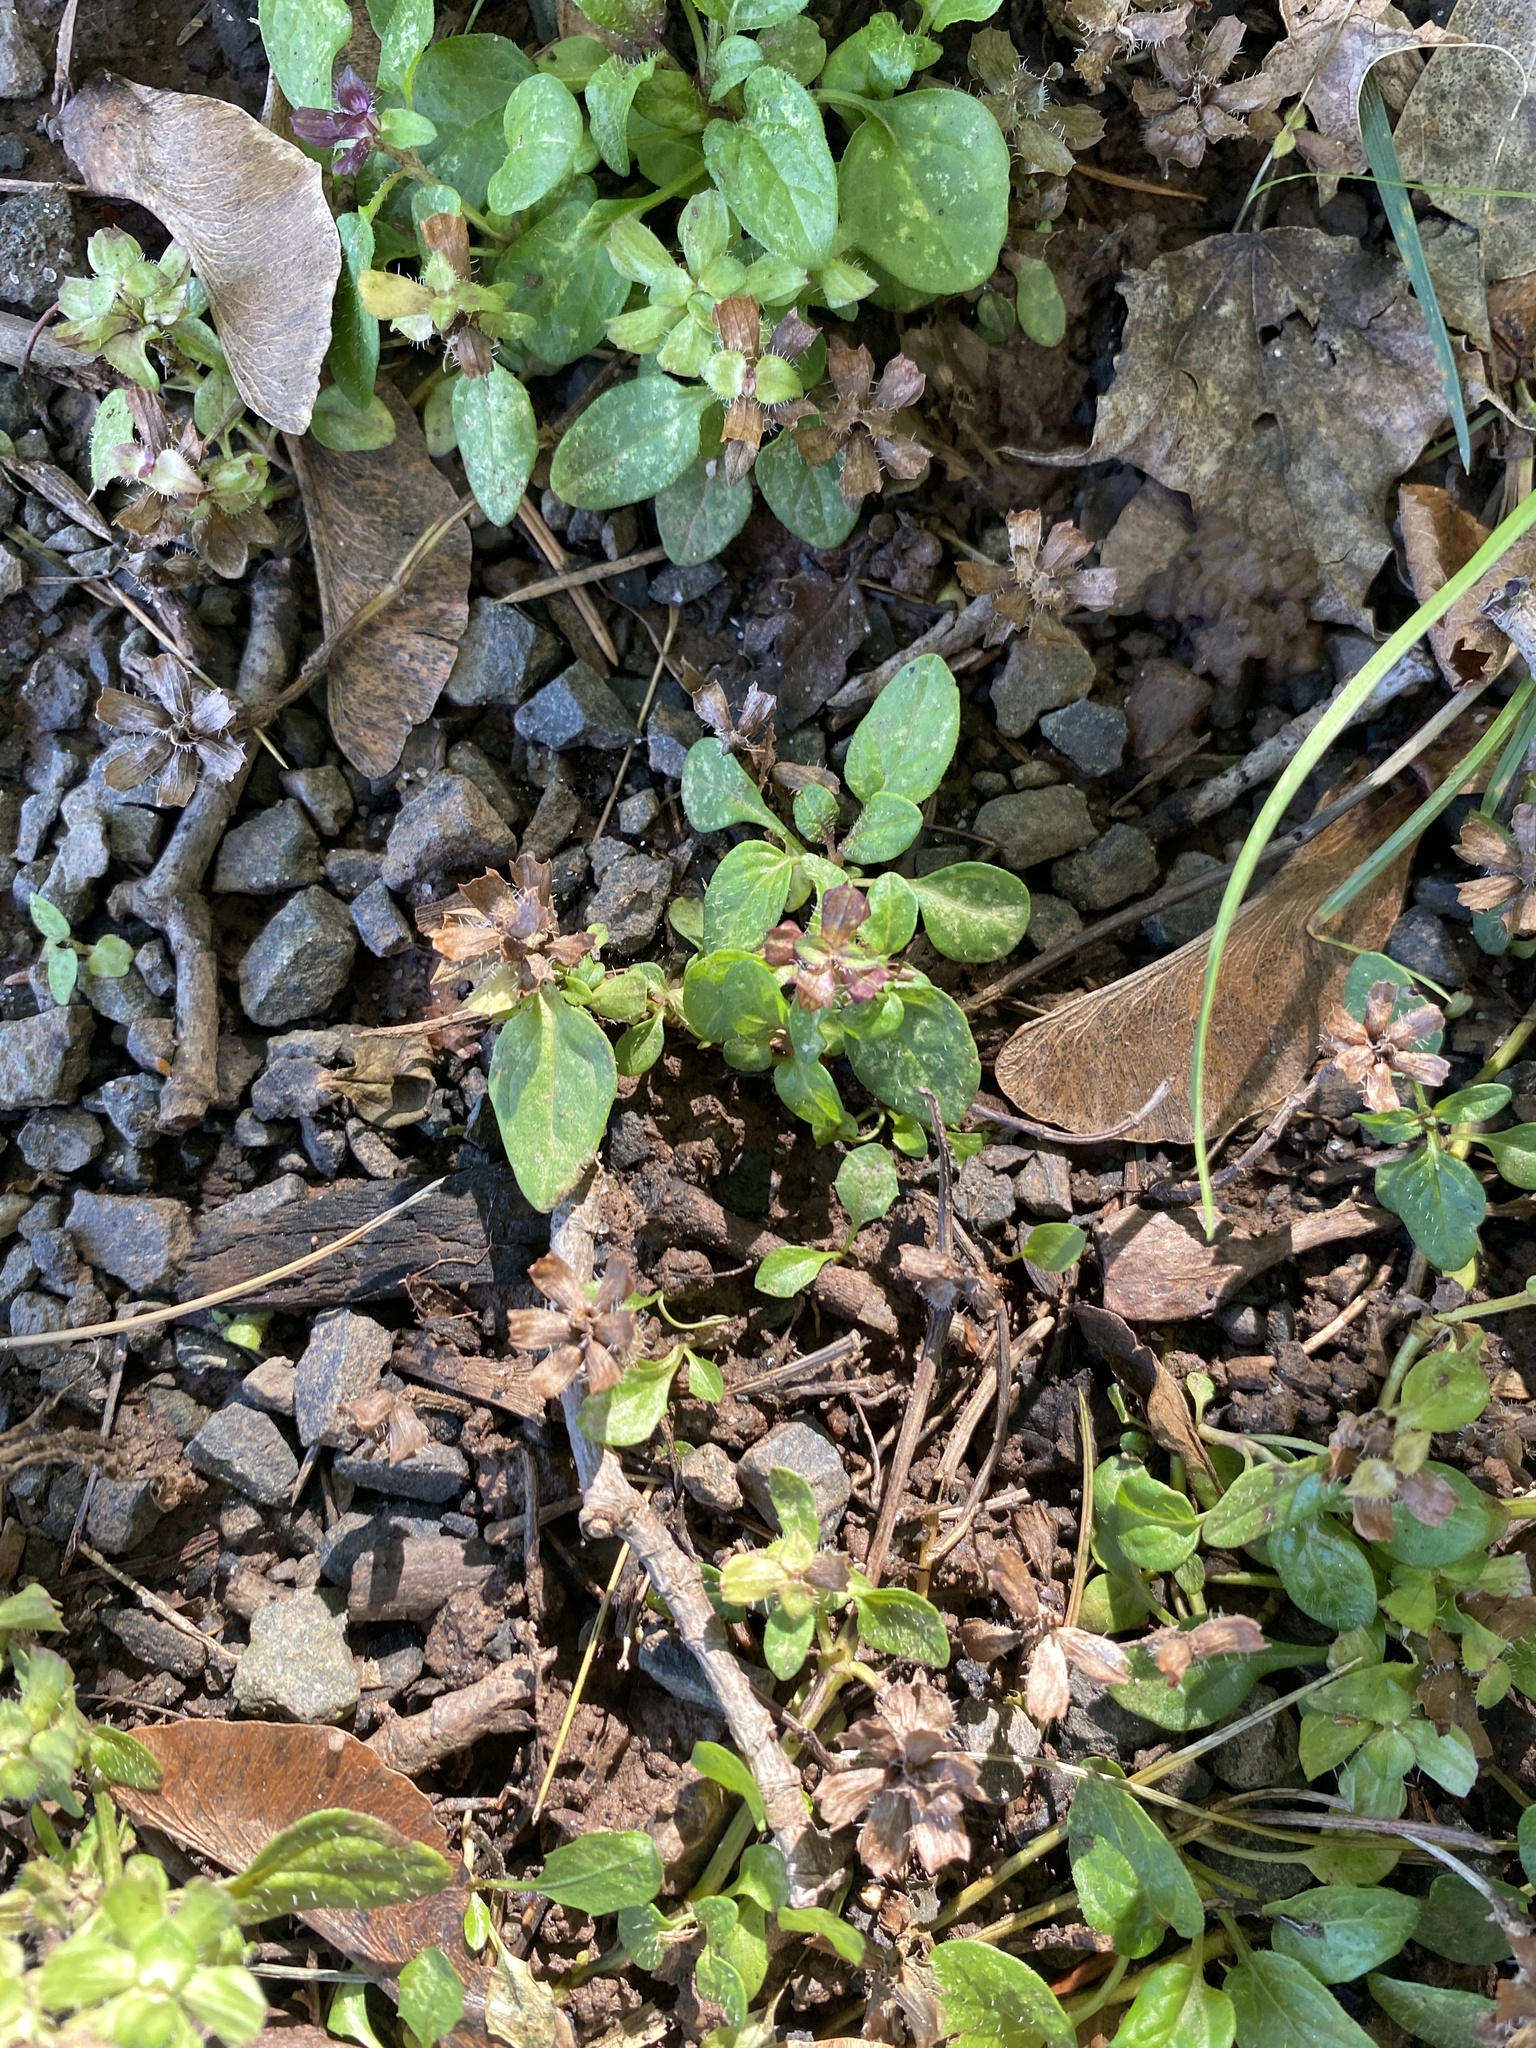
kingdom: Plantae
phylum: Tracheophyta
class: Magnoliopsida
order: Lamiales
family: Lamiaceae
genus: Prunella
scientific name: Prunella vulgaris
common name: Heal-all
